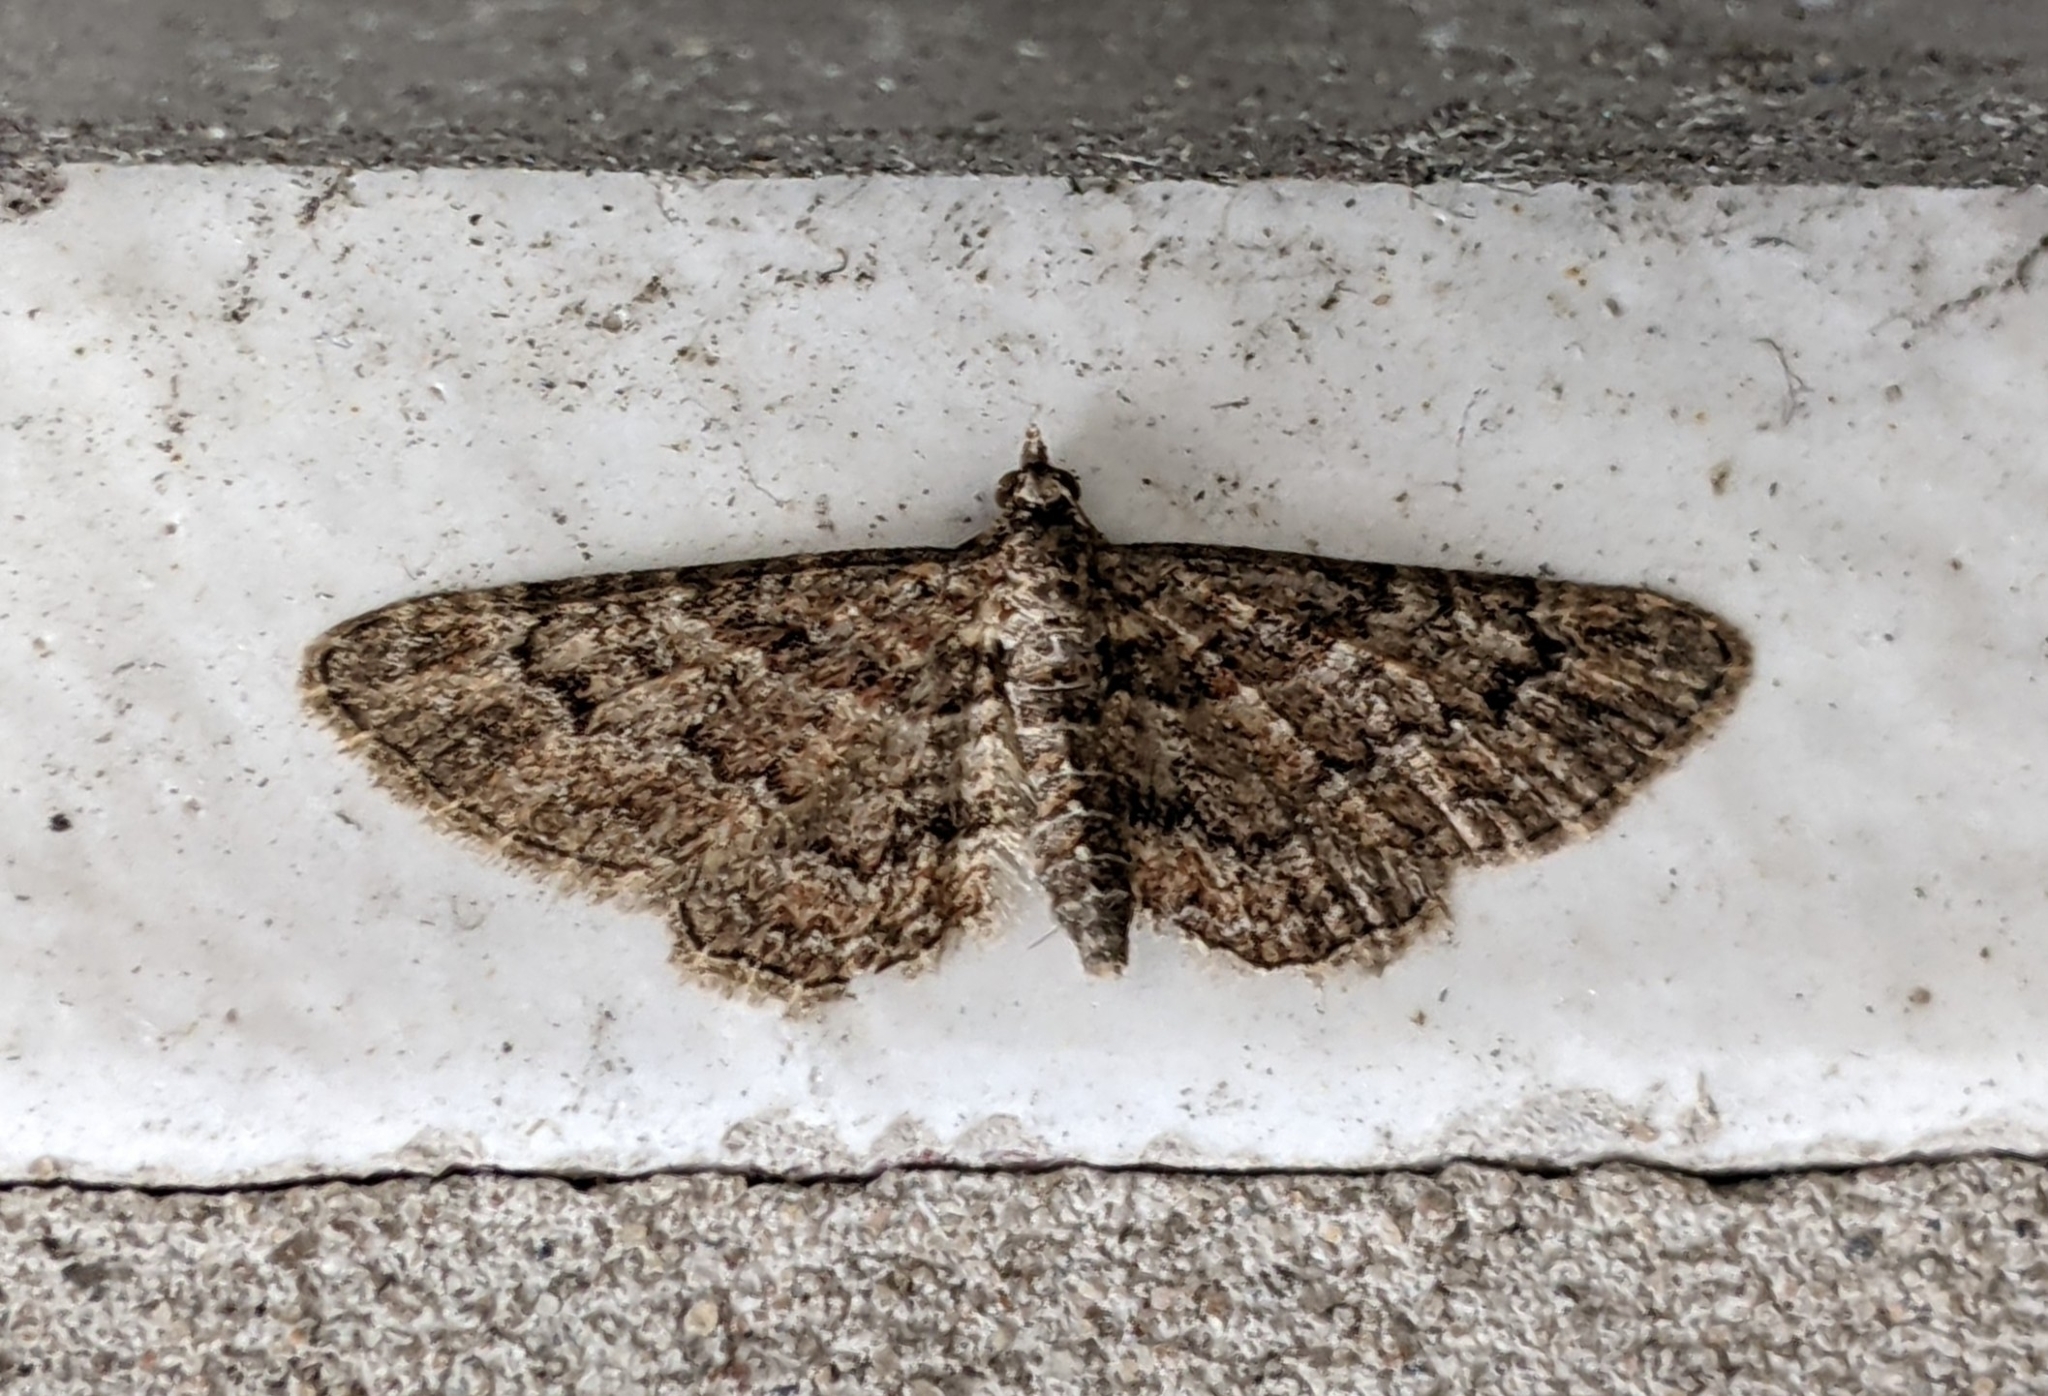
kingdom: Animalia
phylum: Arthropoda
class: Insecta
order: Lepidoptera
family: Geometridae
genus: Gymnoscelis
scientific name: Gymnoscelis rufifasciata
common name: Double-striped pug
